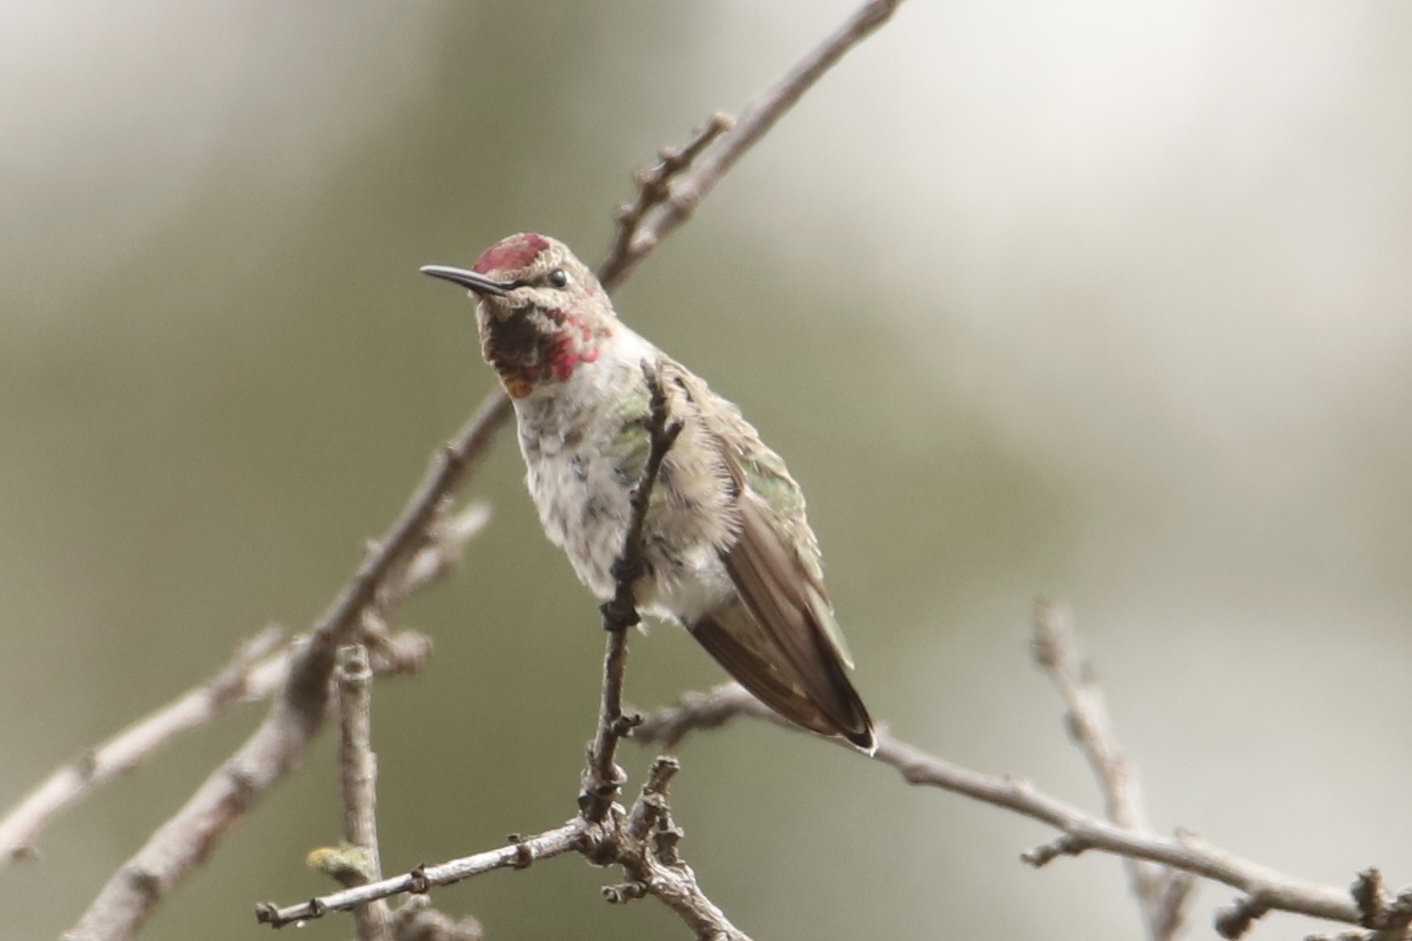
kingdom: Animalia
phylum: Chordata
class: Aves
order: Apodiformes
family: Trochilidae
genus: Calypte
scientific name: Calypte anna
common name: Anna's hummingbird
